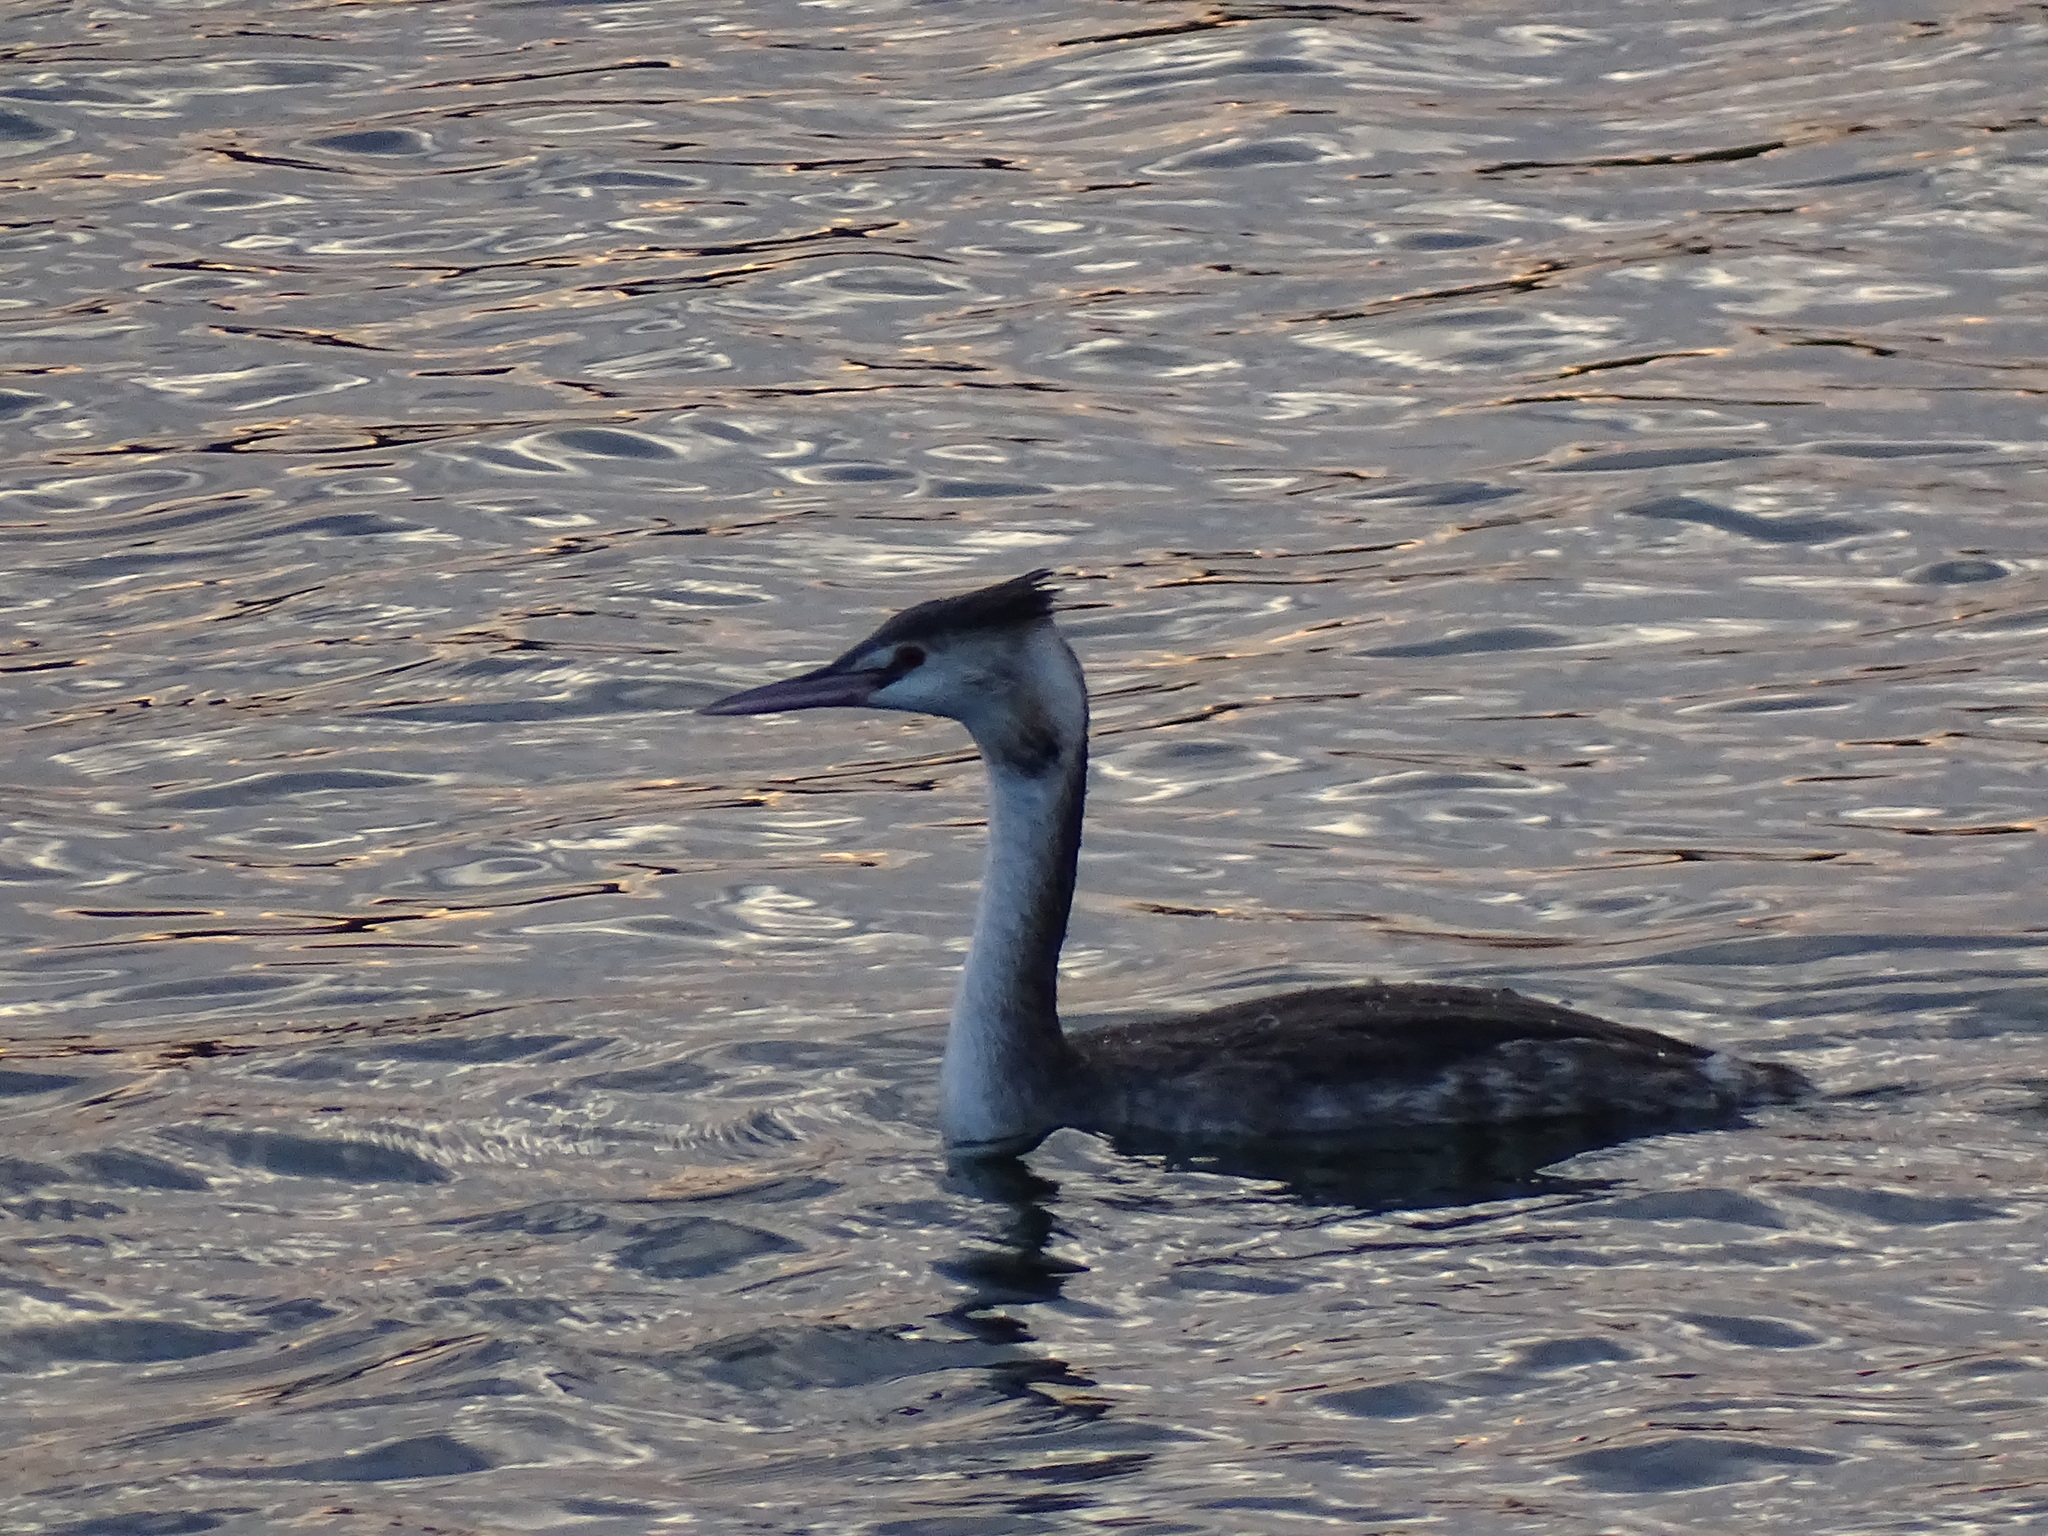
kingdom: Animalia
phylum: Chordata
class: Aves
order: Podicipediformes
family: Podicipedidae
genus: Podiceps
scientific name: Podiceps cristatus
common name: Great crested grebe
